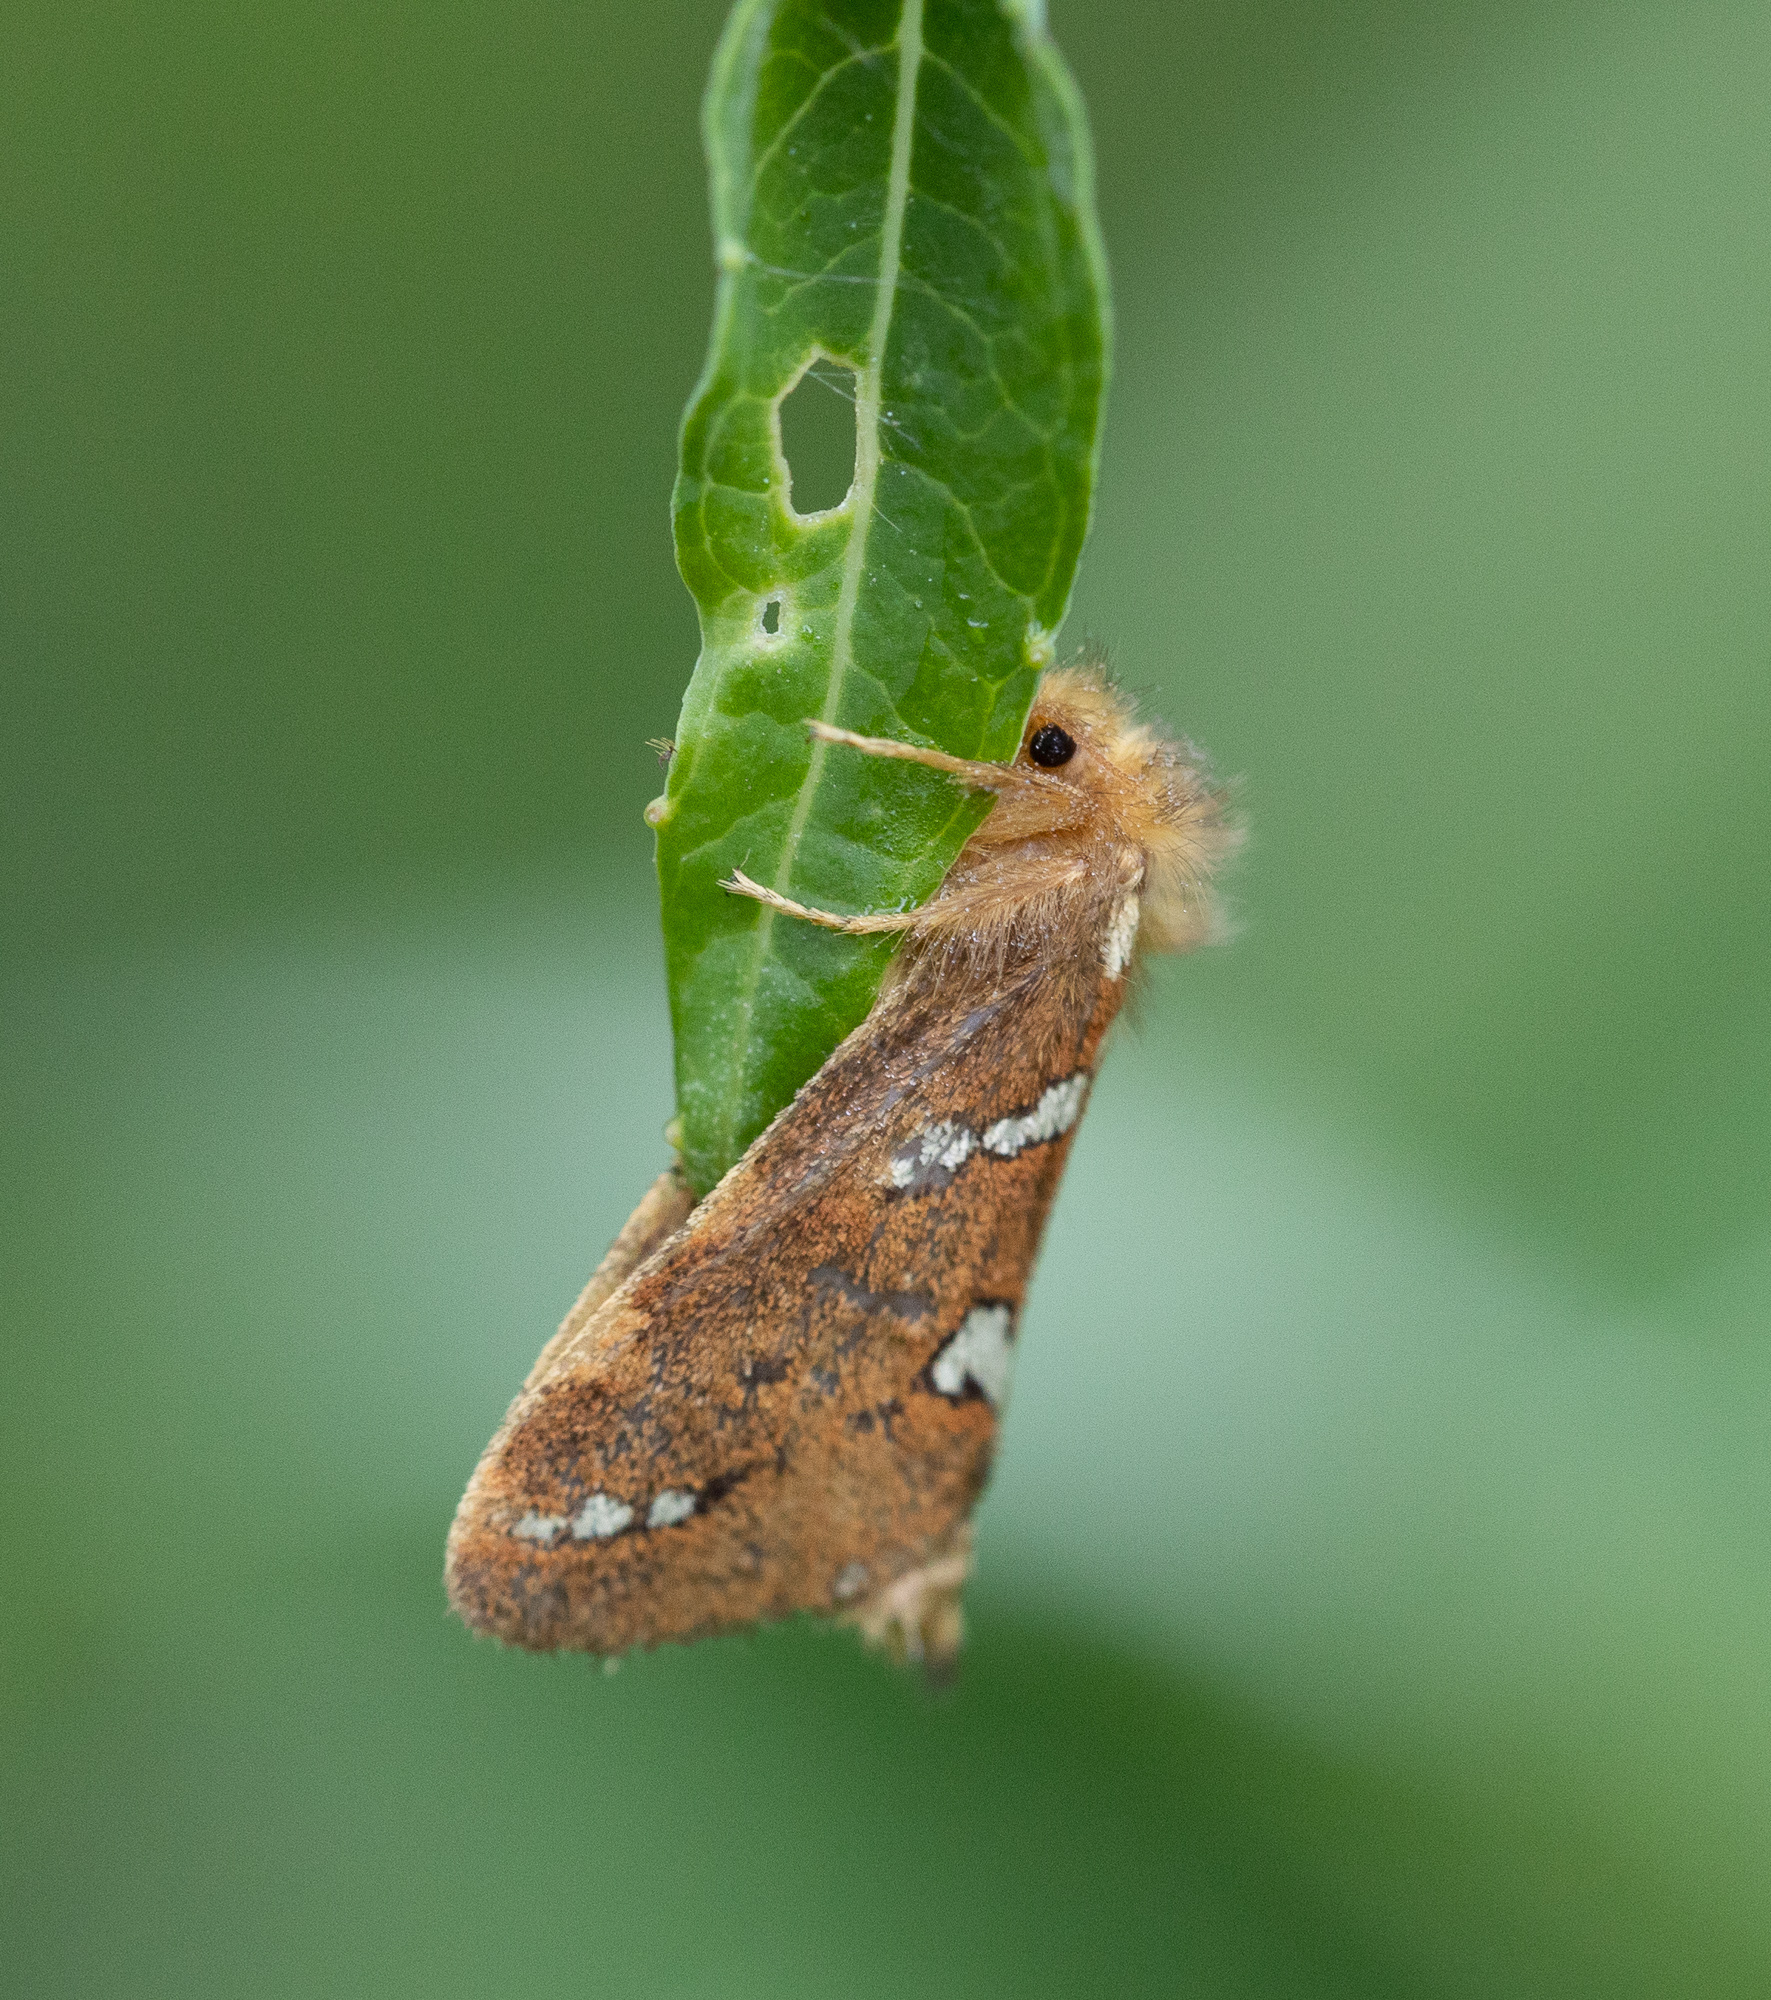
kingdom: Animalia
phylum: Arthropoda
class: Insecta
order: Lepidoptera
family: Hepialidae
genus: Phymatopus
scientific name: Phymatopus hecta
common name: Gold swift
